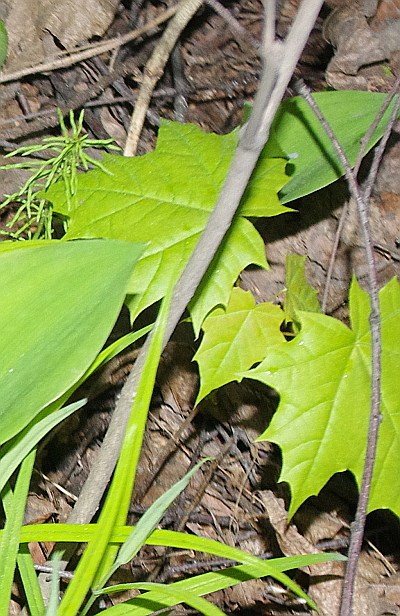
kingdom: Plantae
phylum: Tracheophyta
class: Magnoliopsida
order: Sapindales
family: Sapindaceae
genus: Acer
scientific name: Acer platanoides
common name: Norway maple
